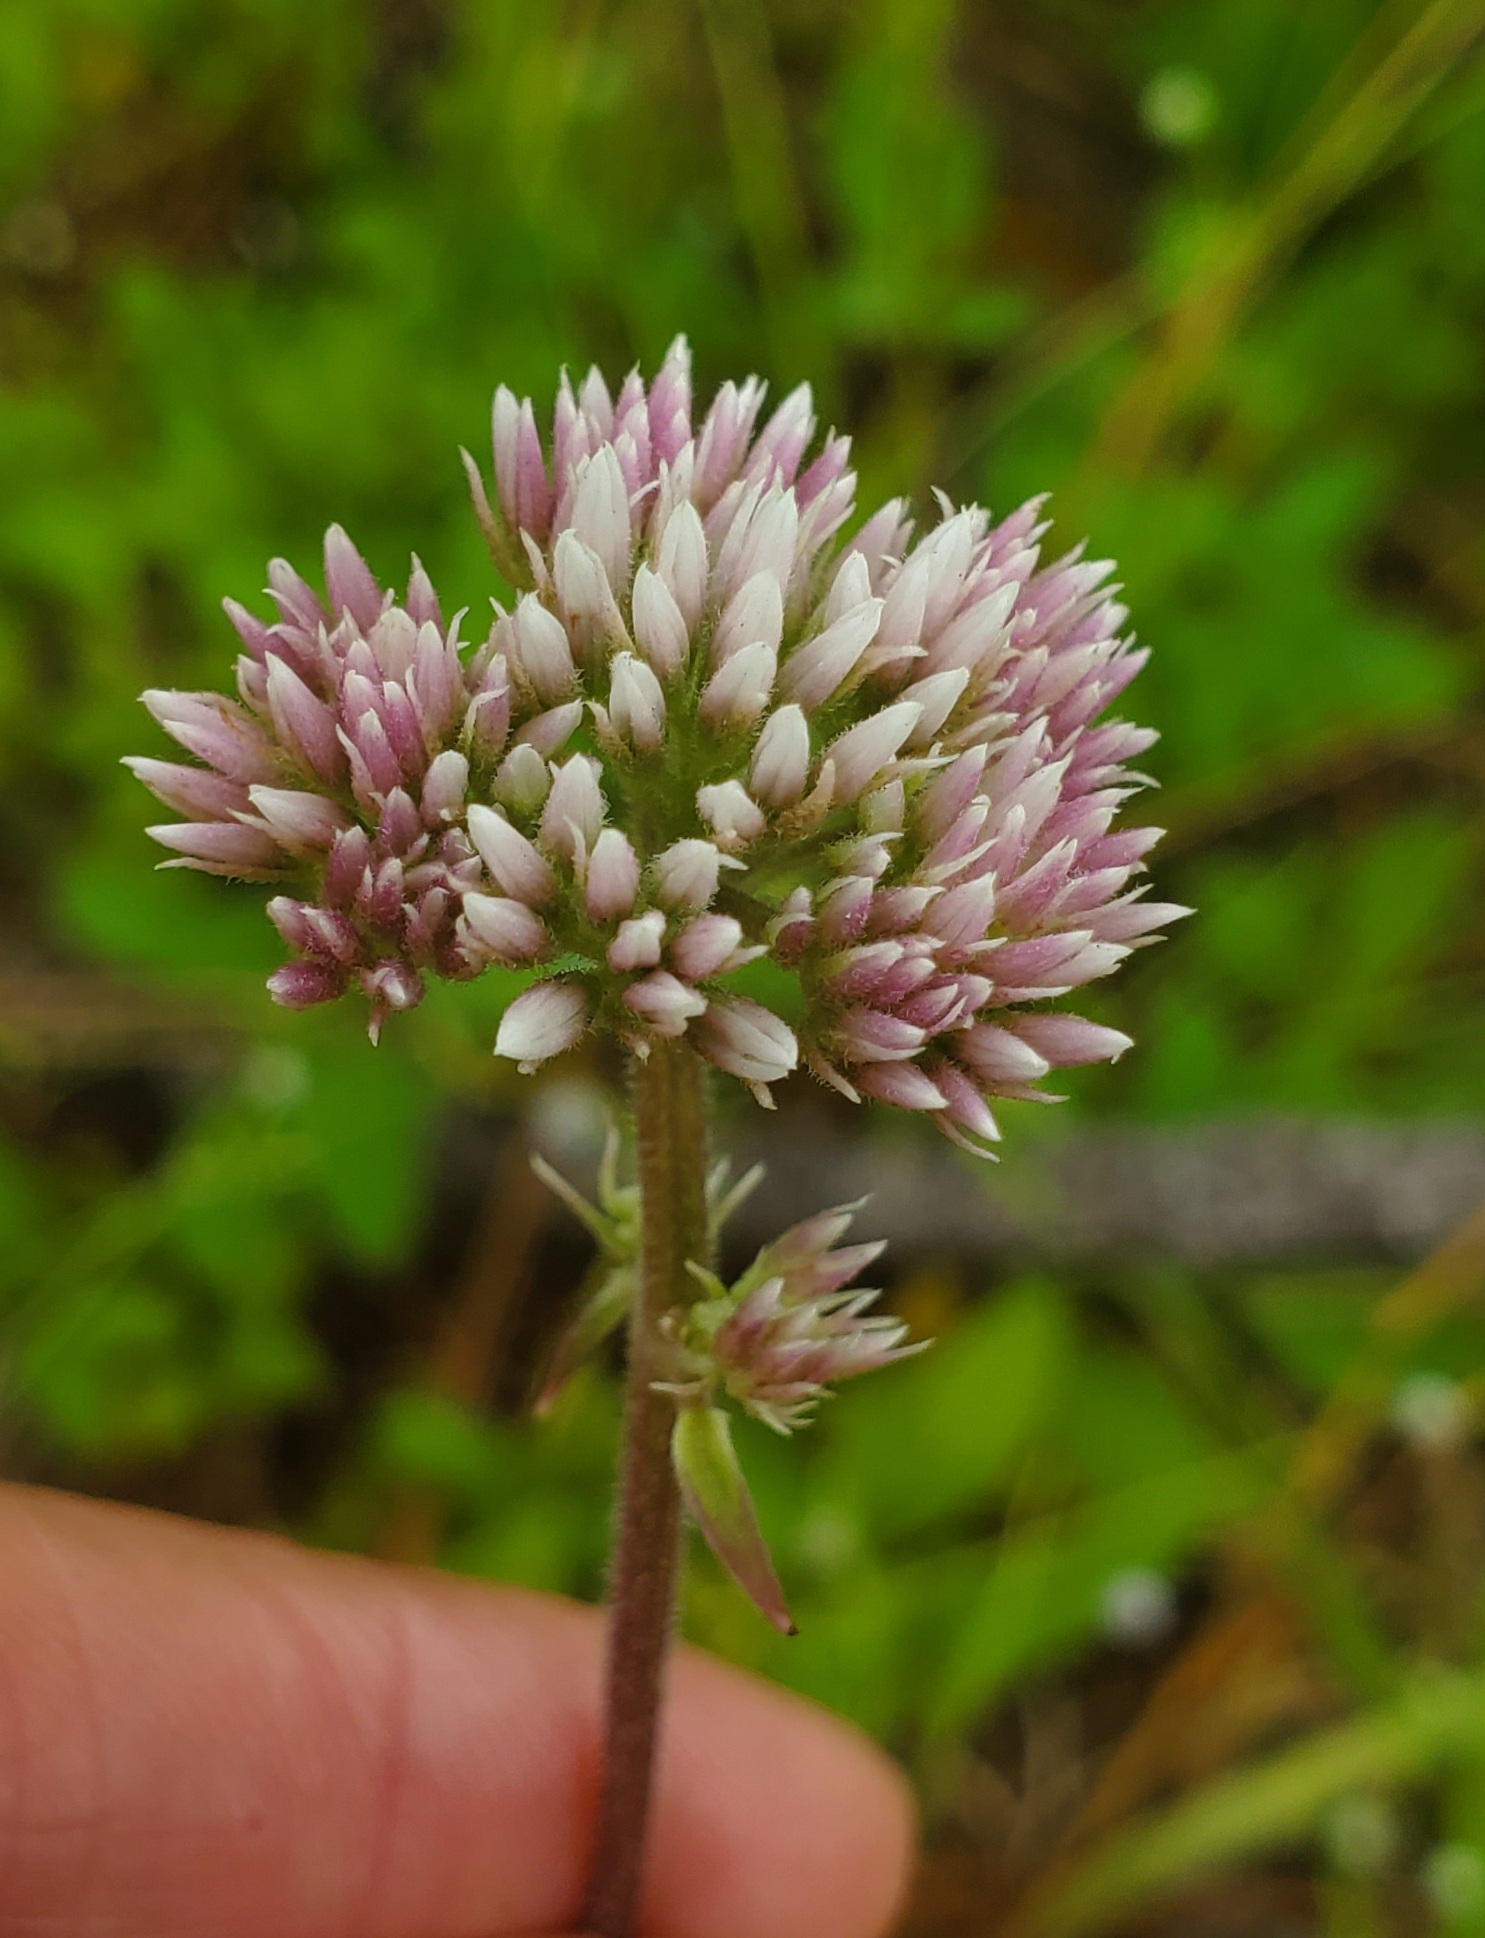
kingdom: Plantae
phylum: Tracheophyta
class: Magnoliopsida
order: Asterales
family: Asteraceae
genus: Mikania
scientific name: Mikania scandens
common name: Climbing hempvine
